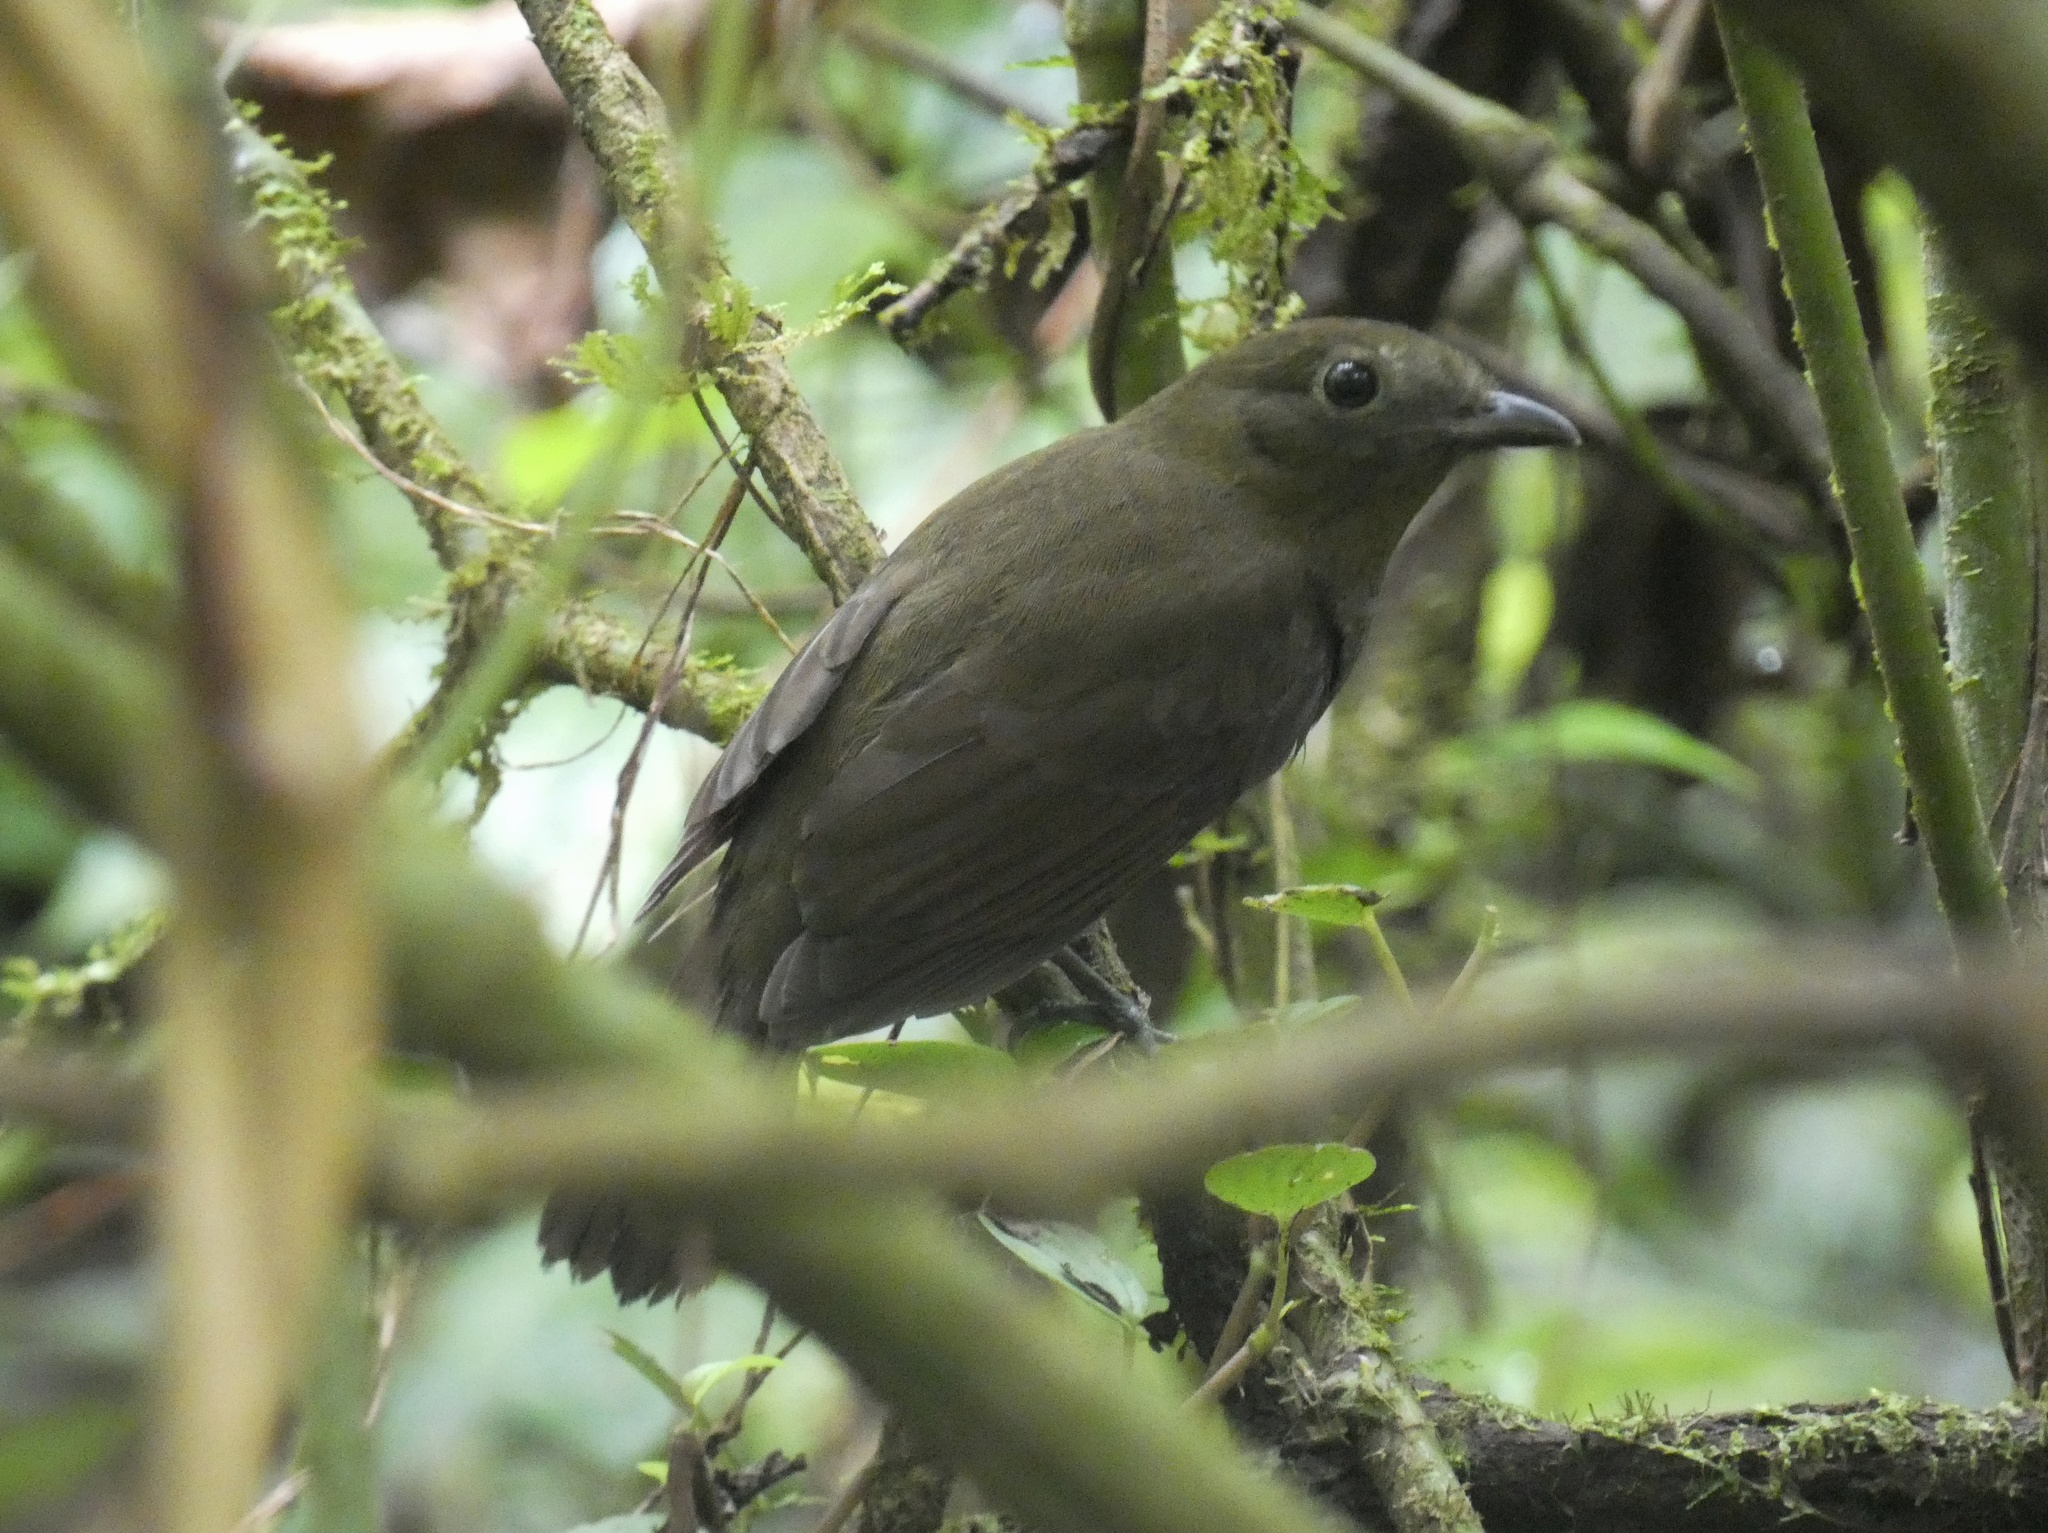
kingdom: Animalia
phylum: Chordata
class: Aves
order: Passeriformes
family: Cotingidae
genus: Schiffornis
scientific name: Schiffornis turdina
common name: Brown-winged schiffornis
